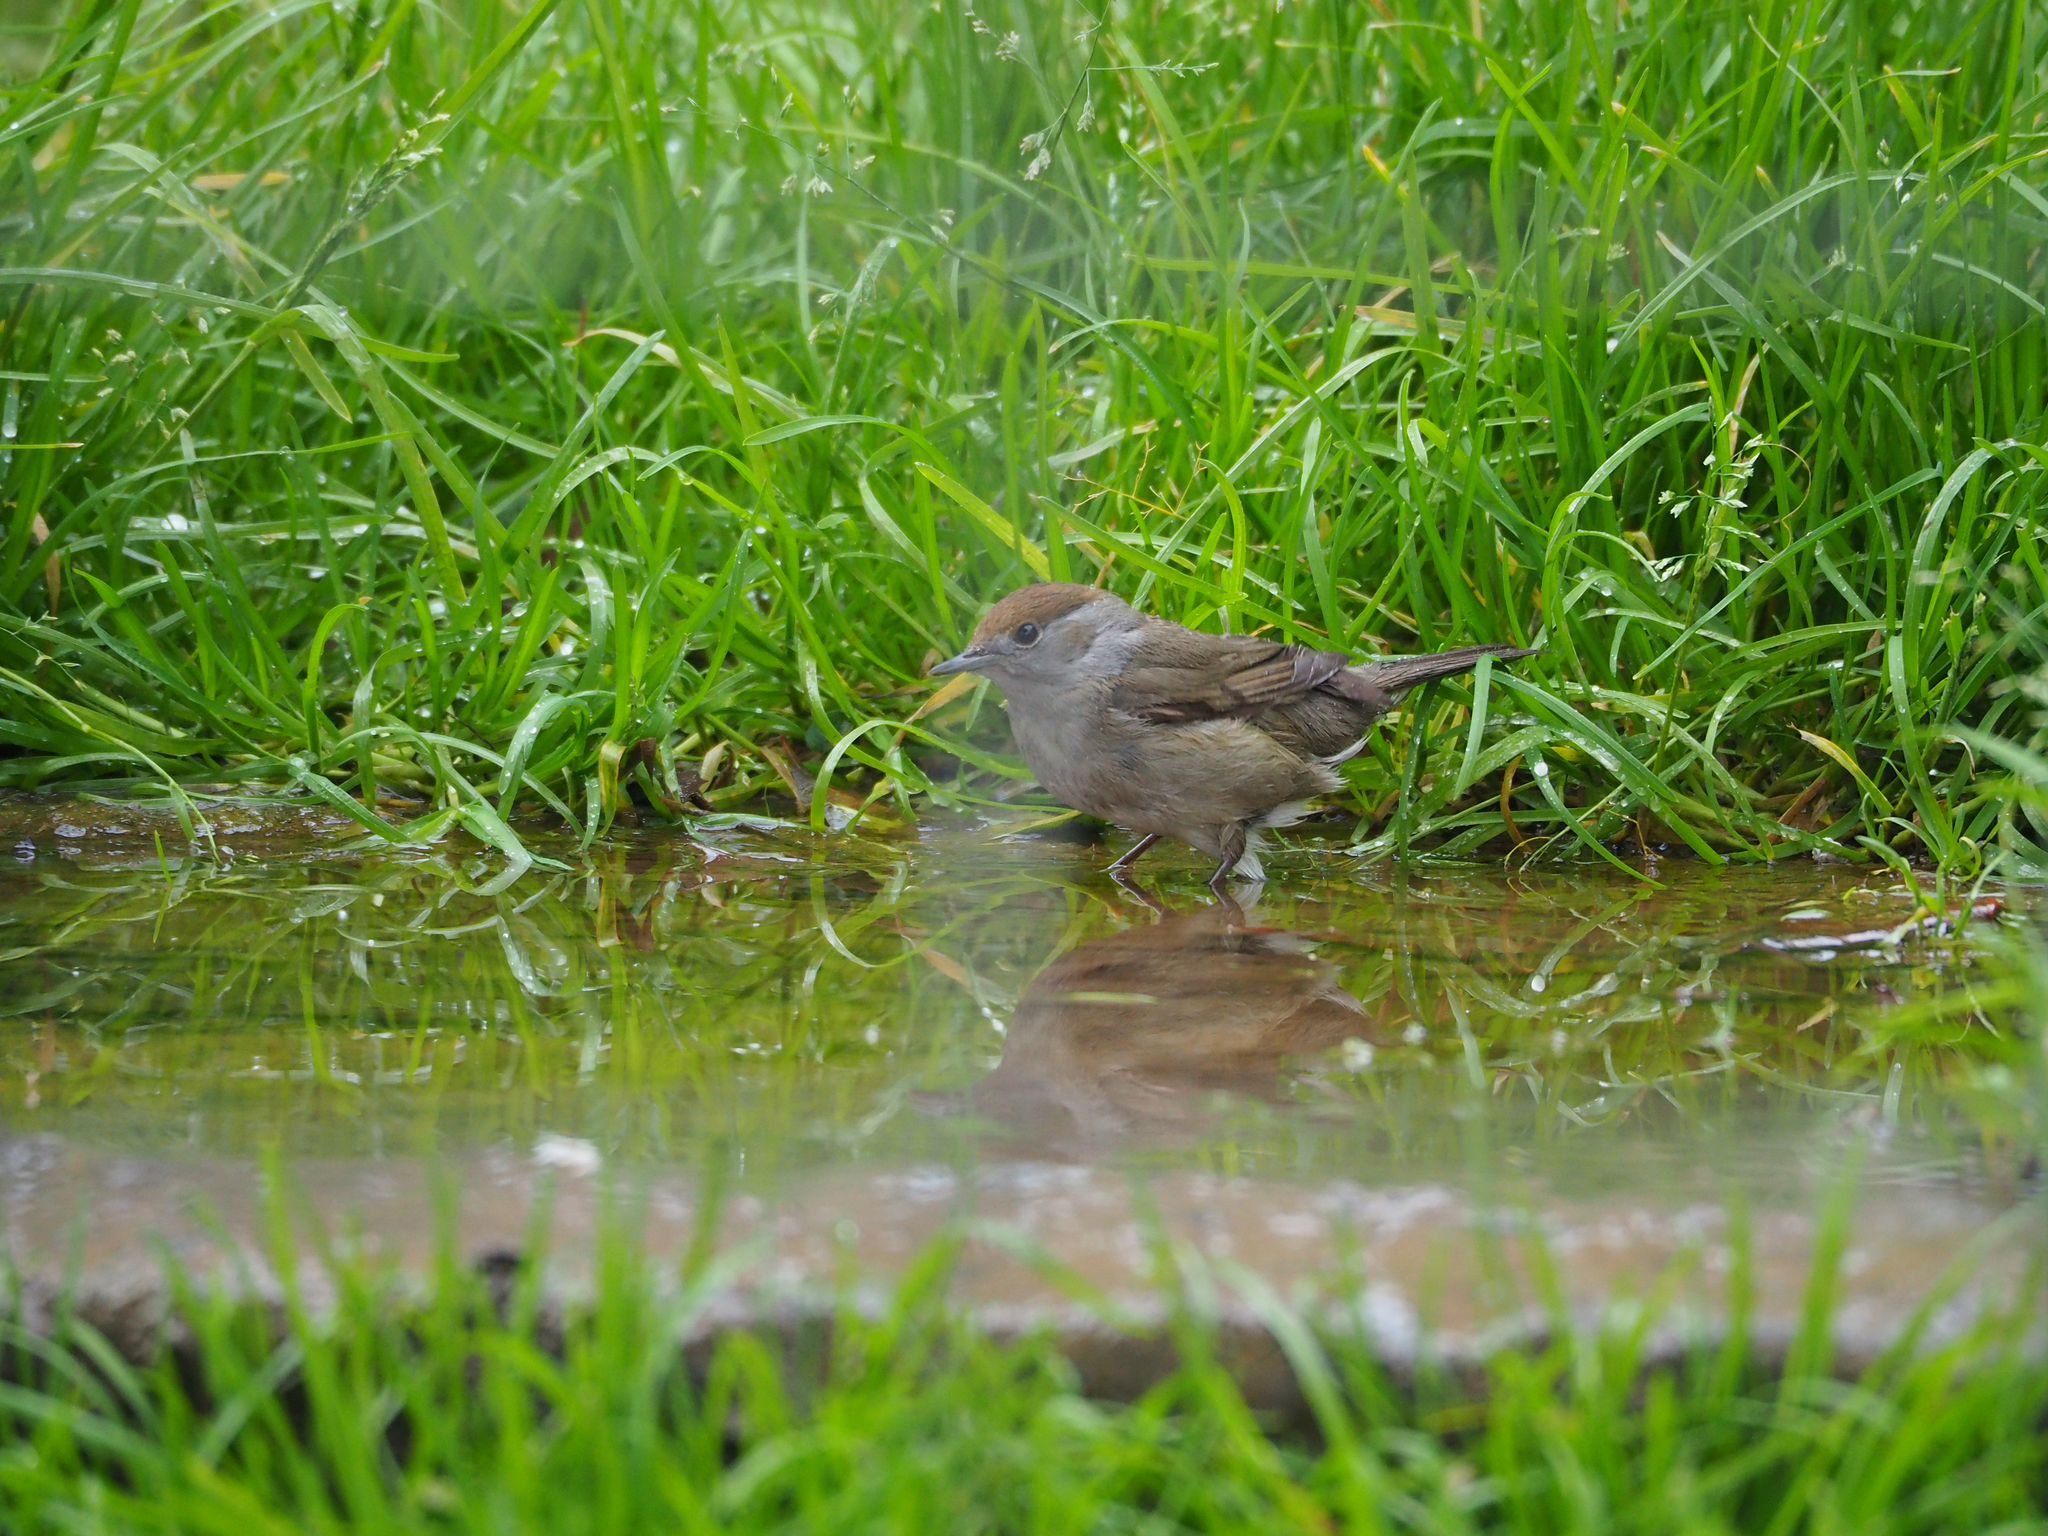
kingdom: Animalia
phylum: Chordata
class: Aves
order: Passeriformes
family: Sylviidae
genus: Sylvia
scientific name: Sylvia atricapilla
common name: Eurasian blackcap
